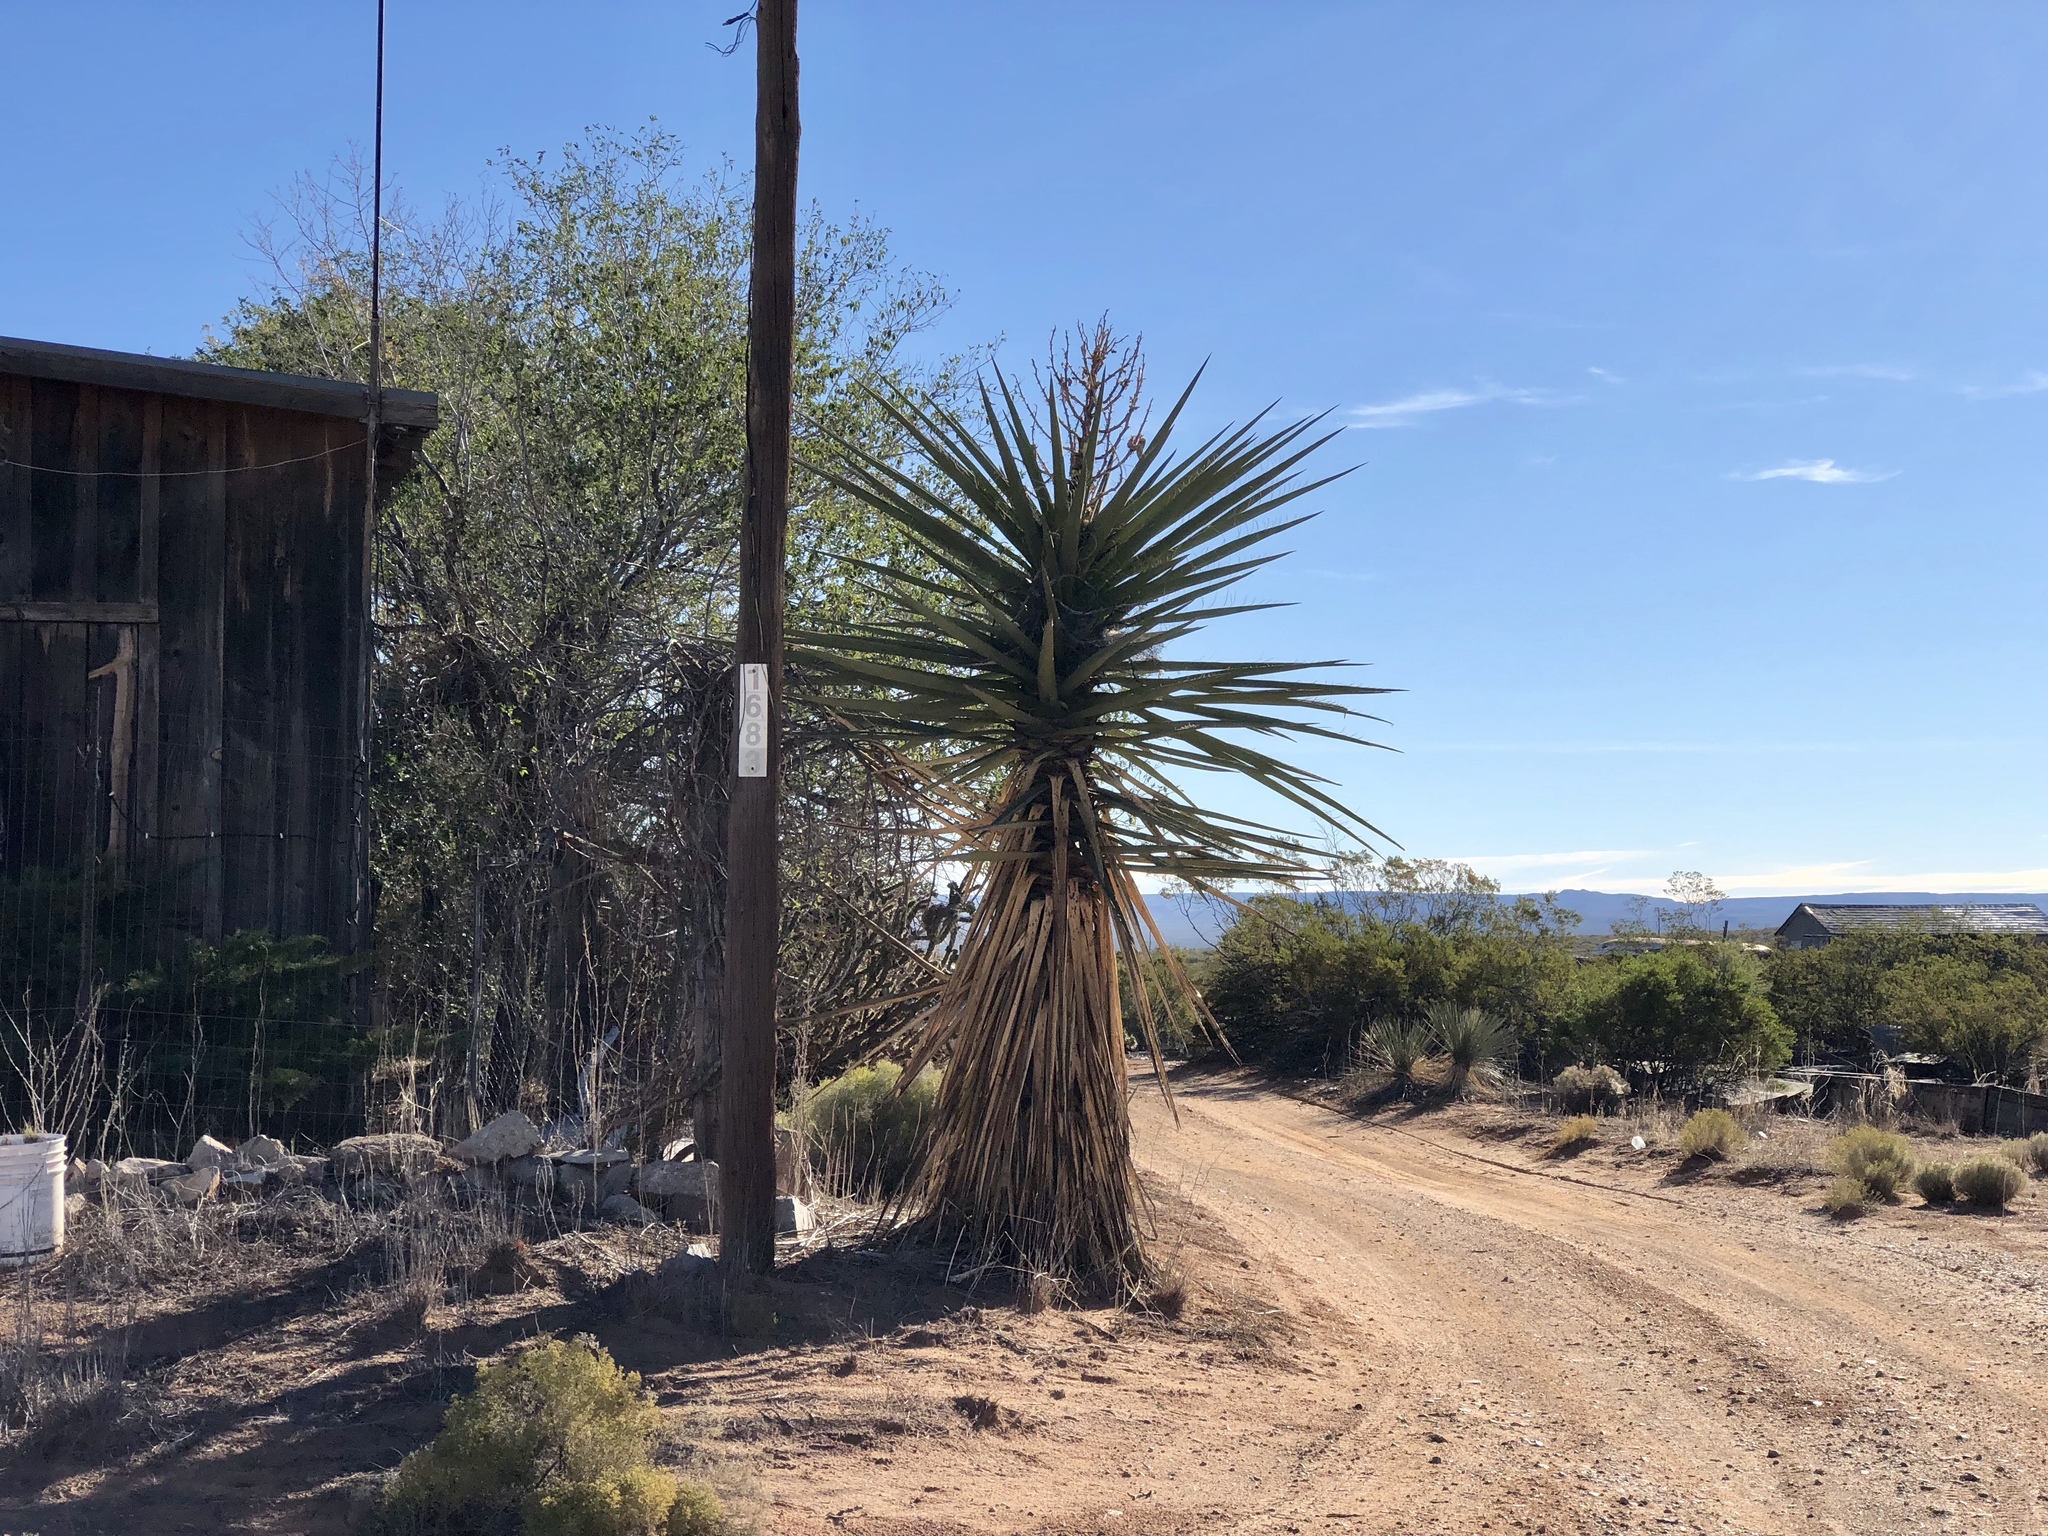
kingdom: Plantae
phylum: Tracheophyta
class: Liliopsida
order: Asparagales
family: Asparagaceae
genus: Yucca
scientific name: Yucca treculiana
